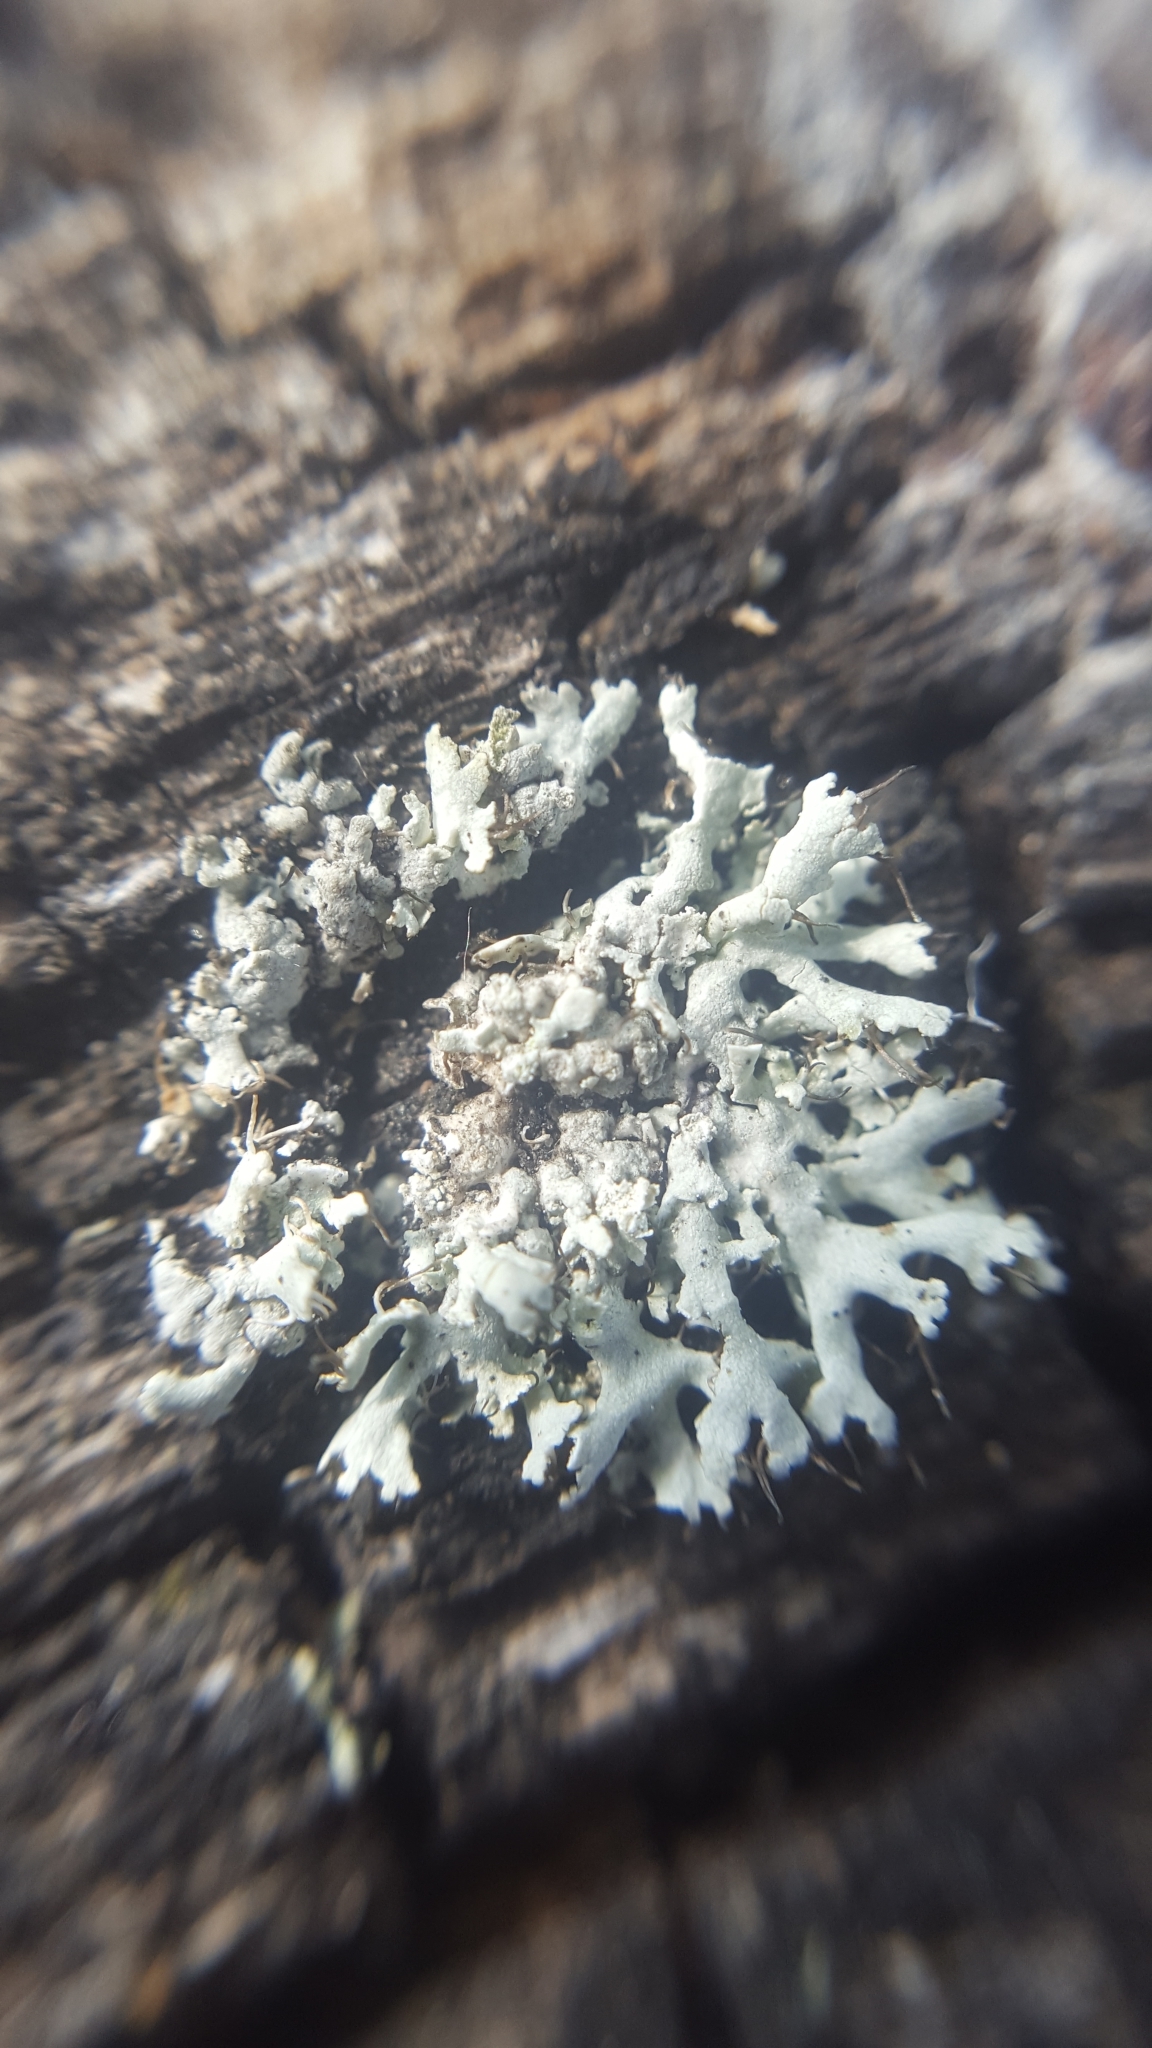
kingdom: Fungi
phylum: Ascomycota
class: Lecanoromycetes
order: Caliciales
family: Physciaceae
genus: Physcia
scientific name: Physcia adscendens
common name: Hooded rosette lichen
